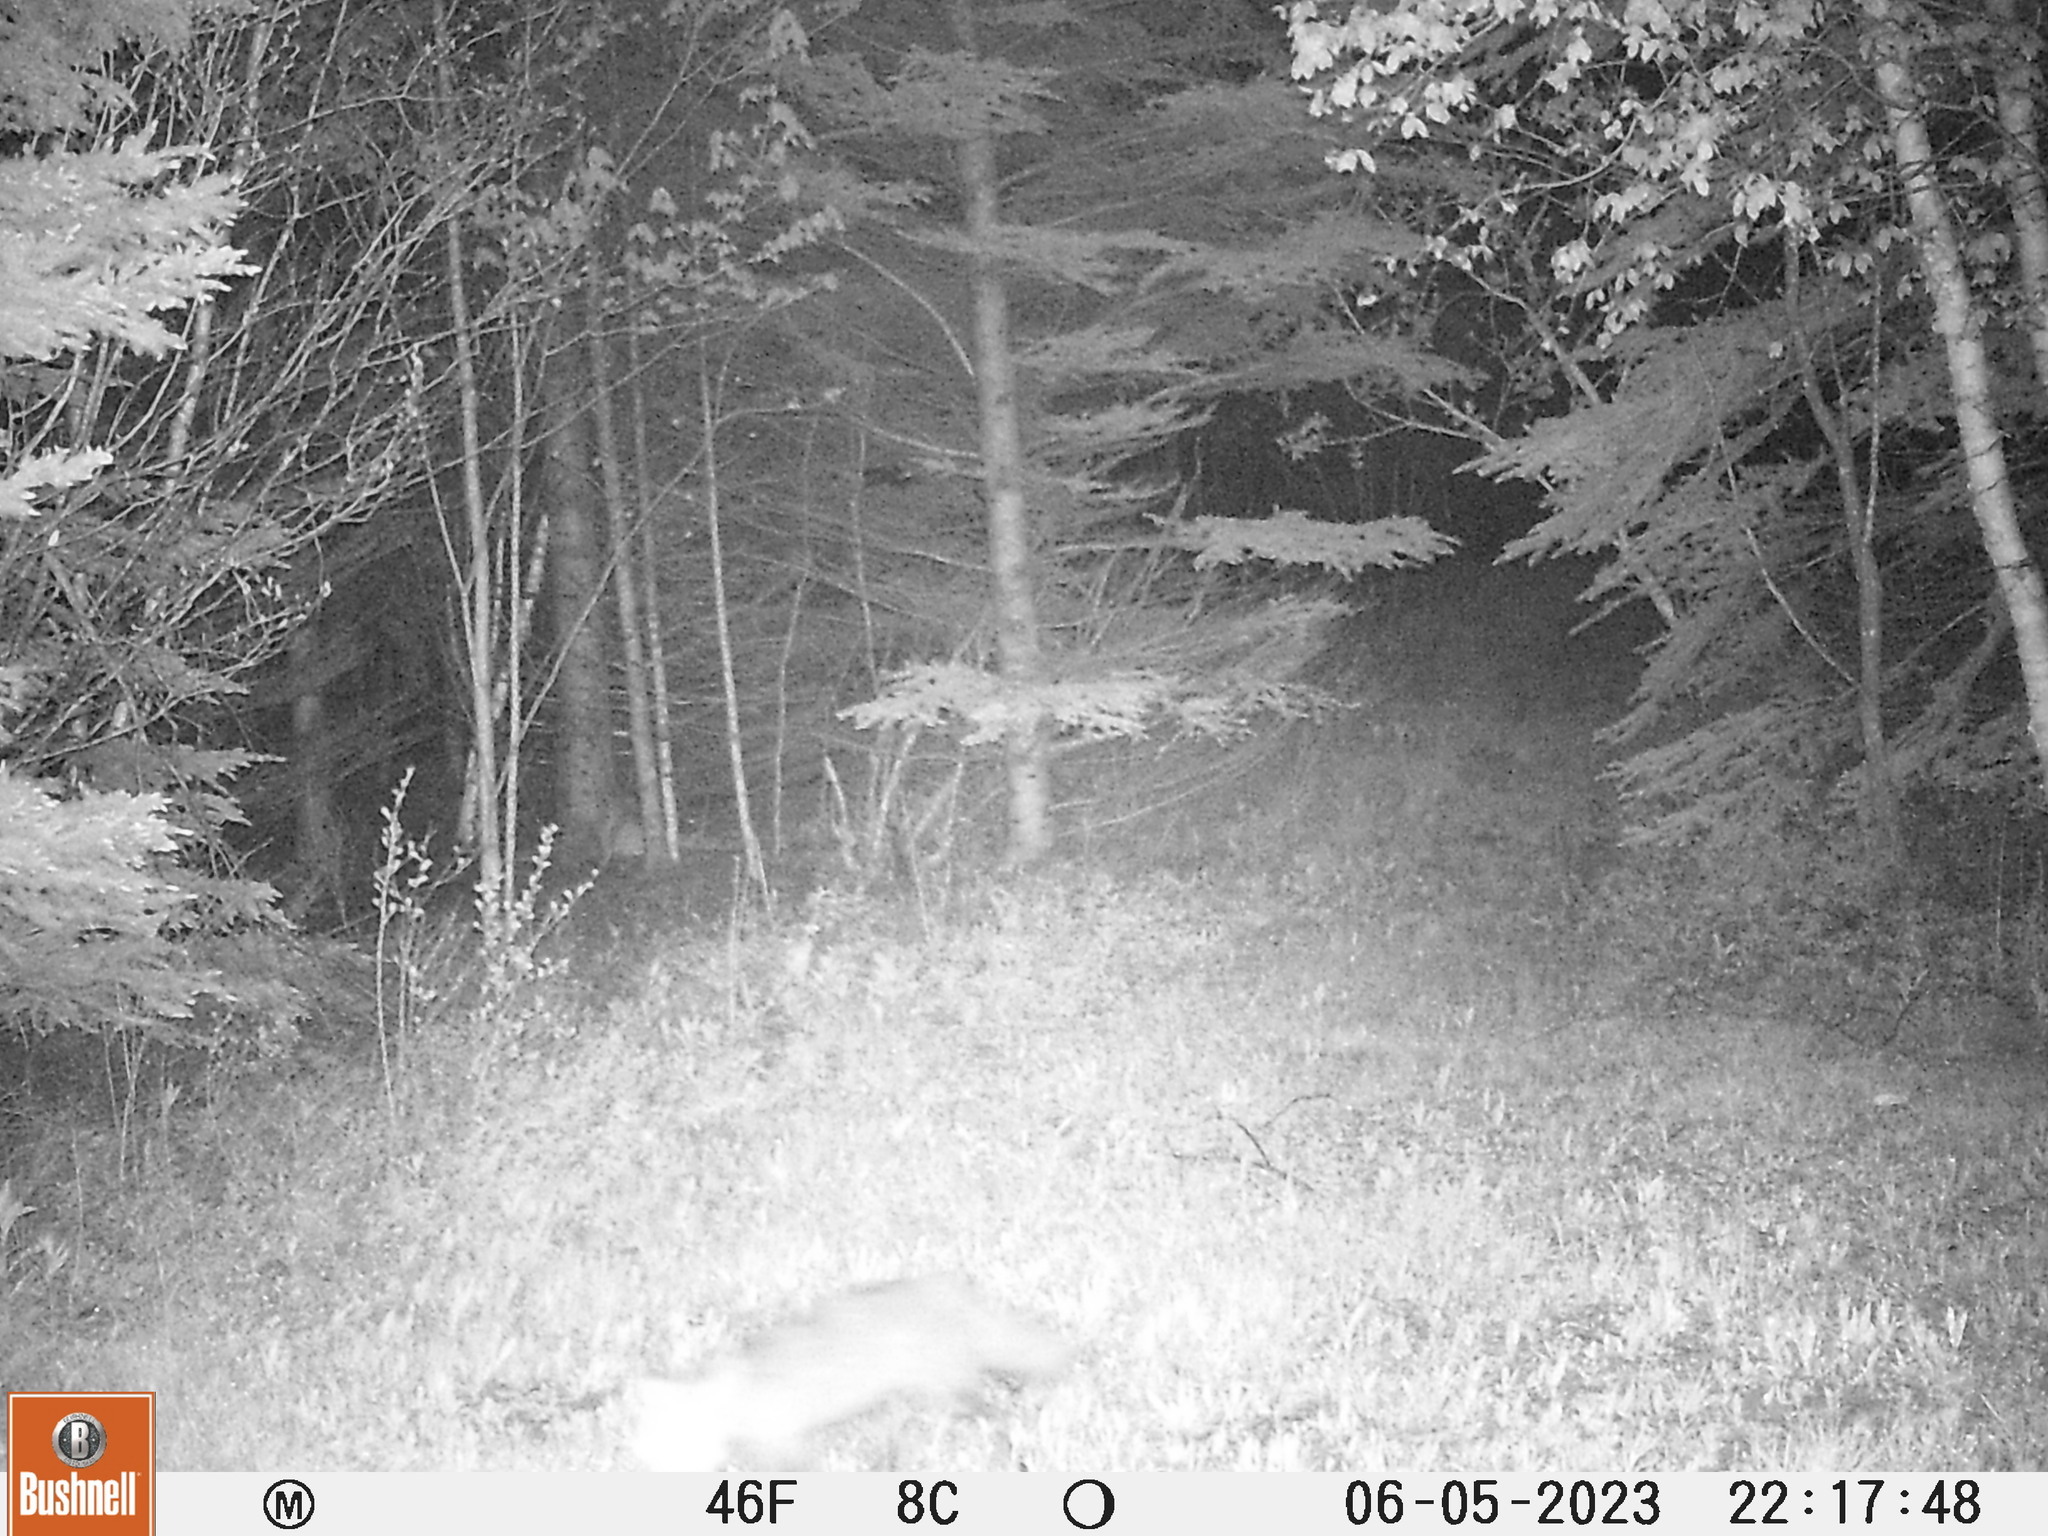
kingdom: Animalia
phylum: Chordata
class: Mammalia
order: Carnivora
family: Canidae
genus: Vulpes
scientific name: Vulpes vulpes
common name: Red fox
